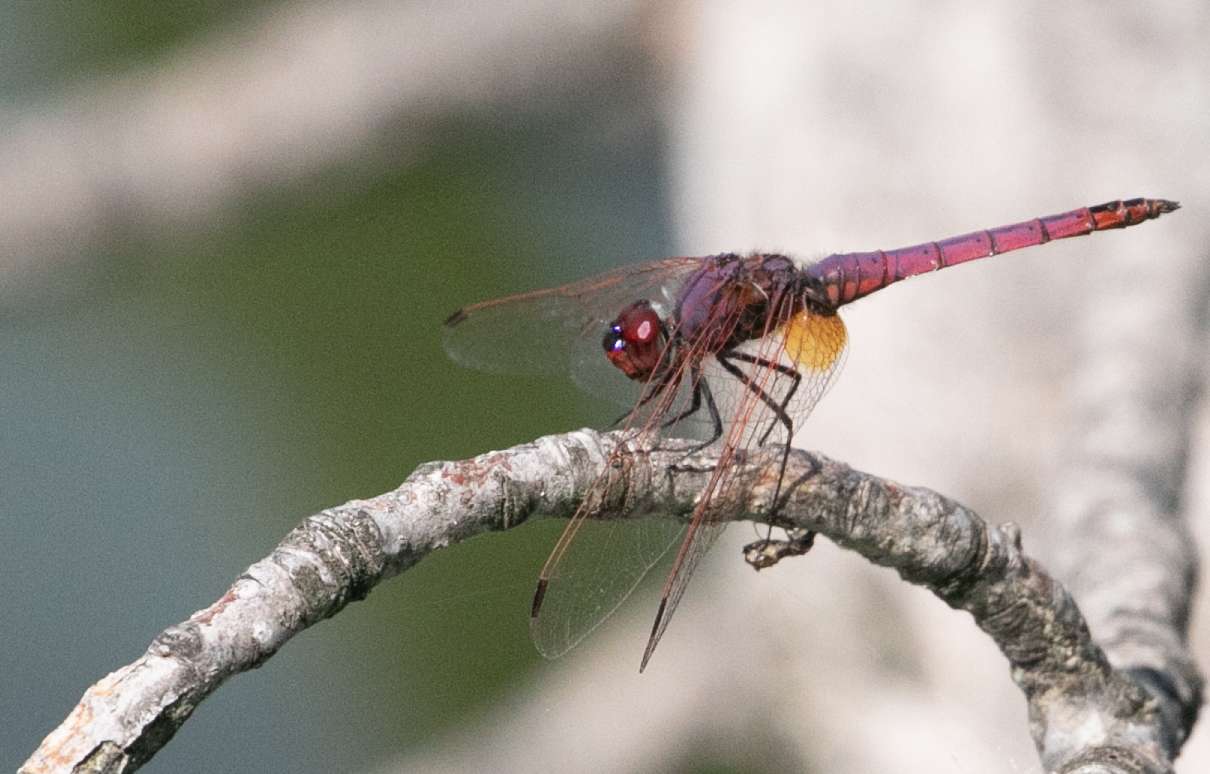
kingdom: Animalia
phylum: Arthropoda
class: Insecta
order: Odonata
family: Libellulidae
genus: Trithemis
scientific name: Trithemis annulata
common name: Violet dropwing
